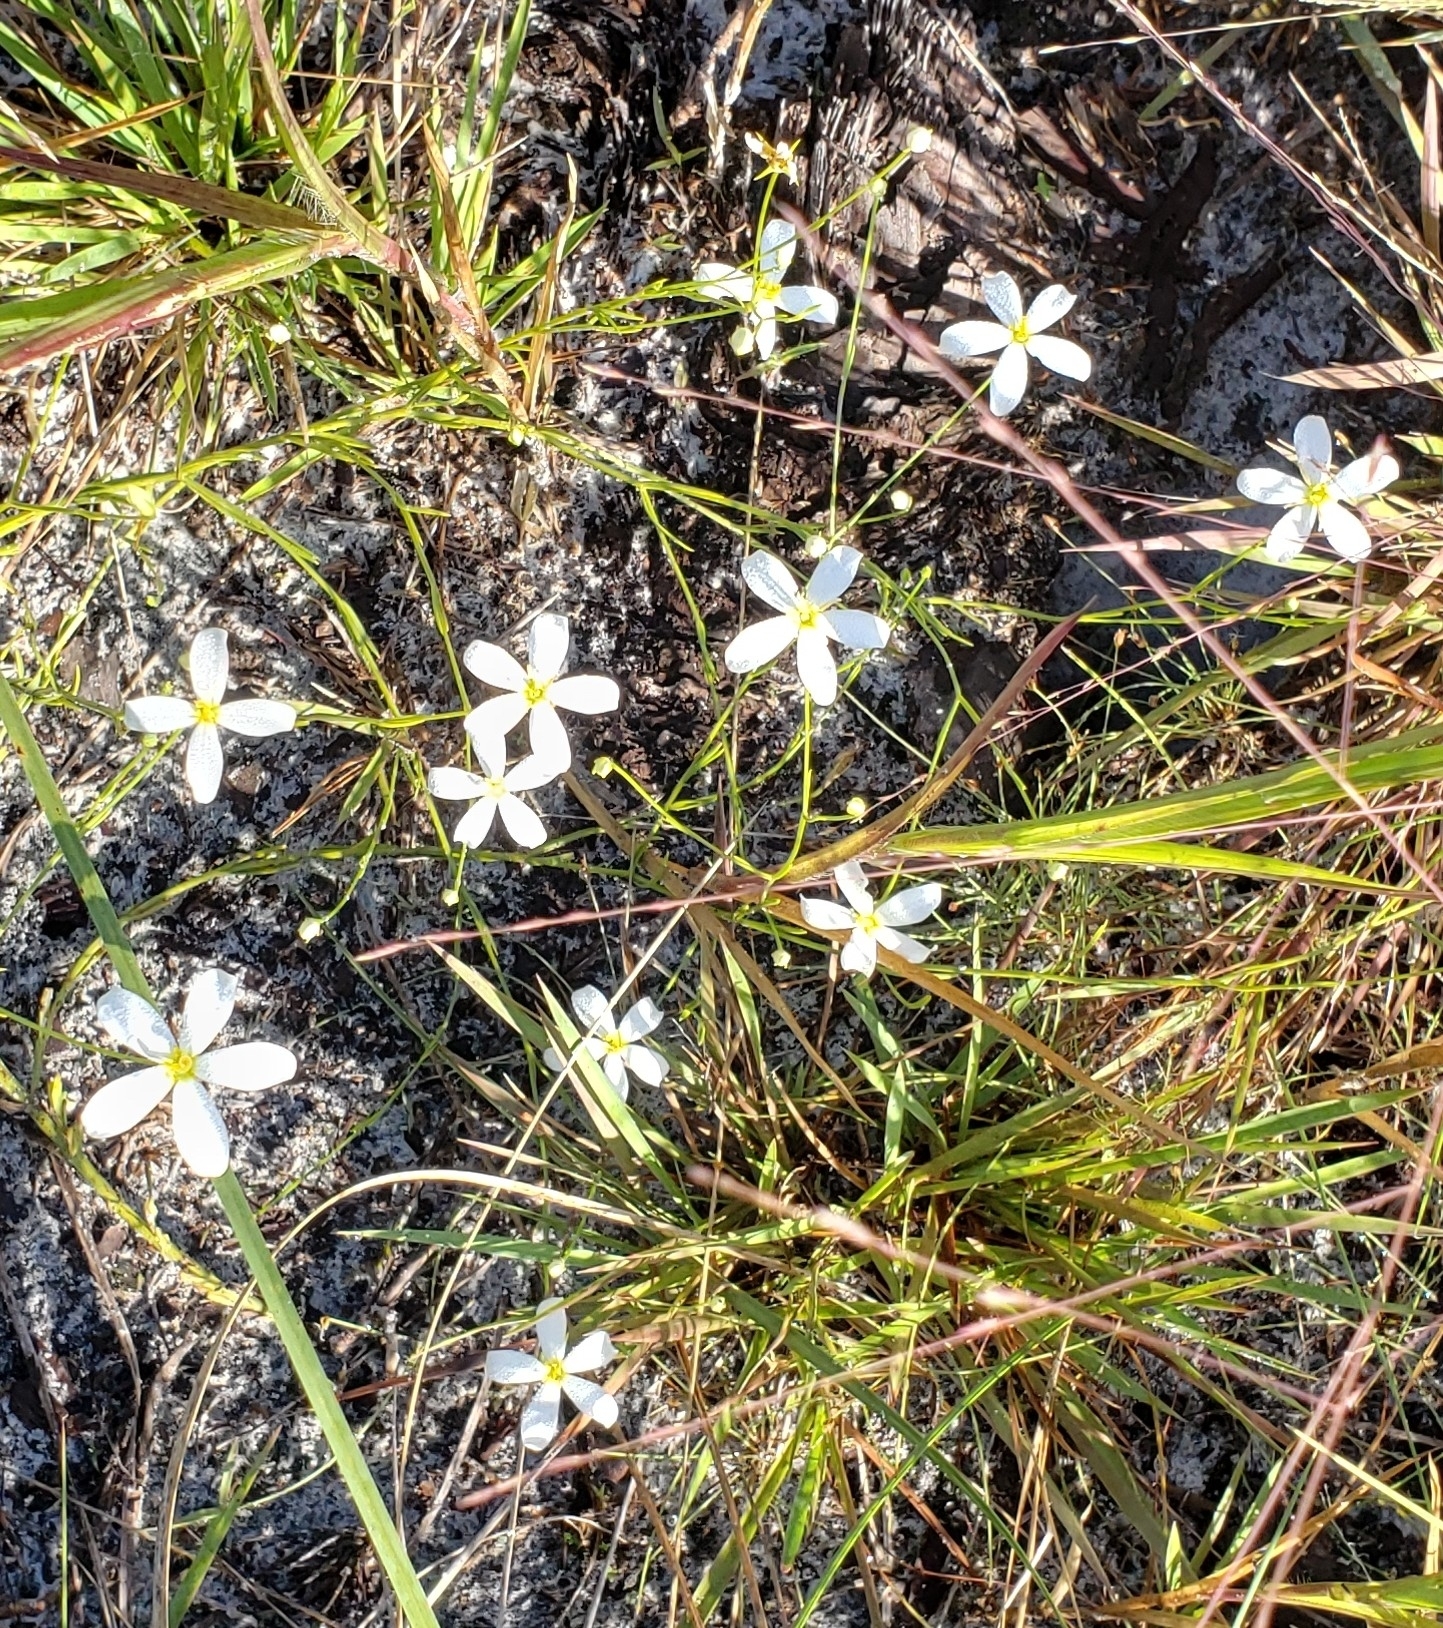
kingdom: Plantae
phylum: Tracheophyta
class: Magnoliopsida
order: Gentianales
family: Gentianaceae
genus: Sabatia
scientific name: Sabatia brevifolia
